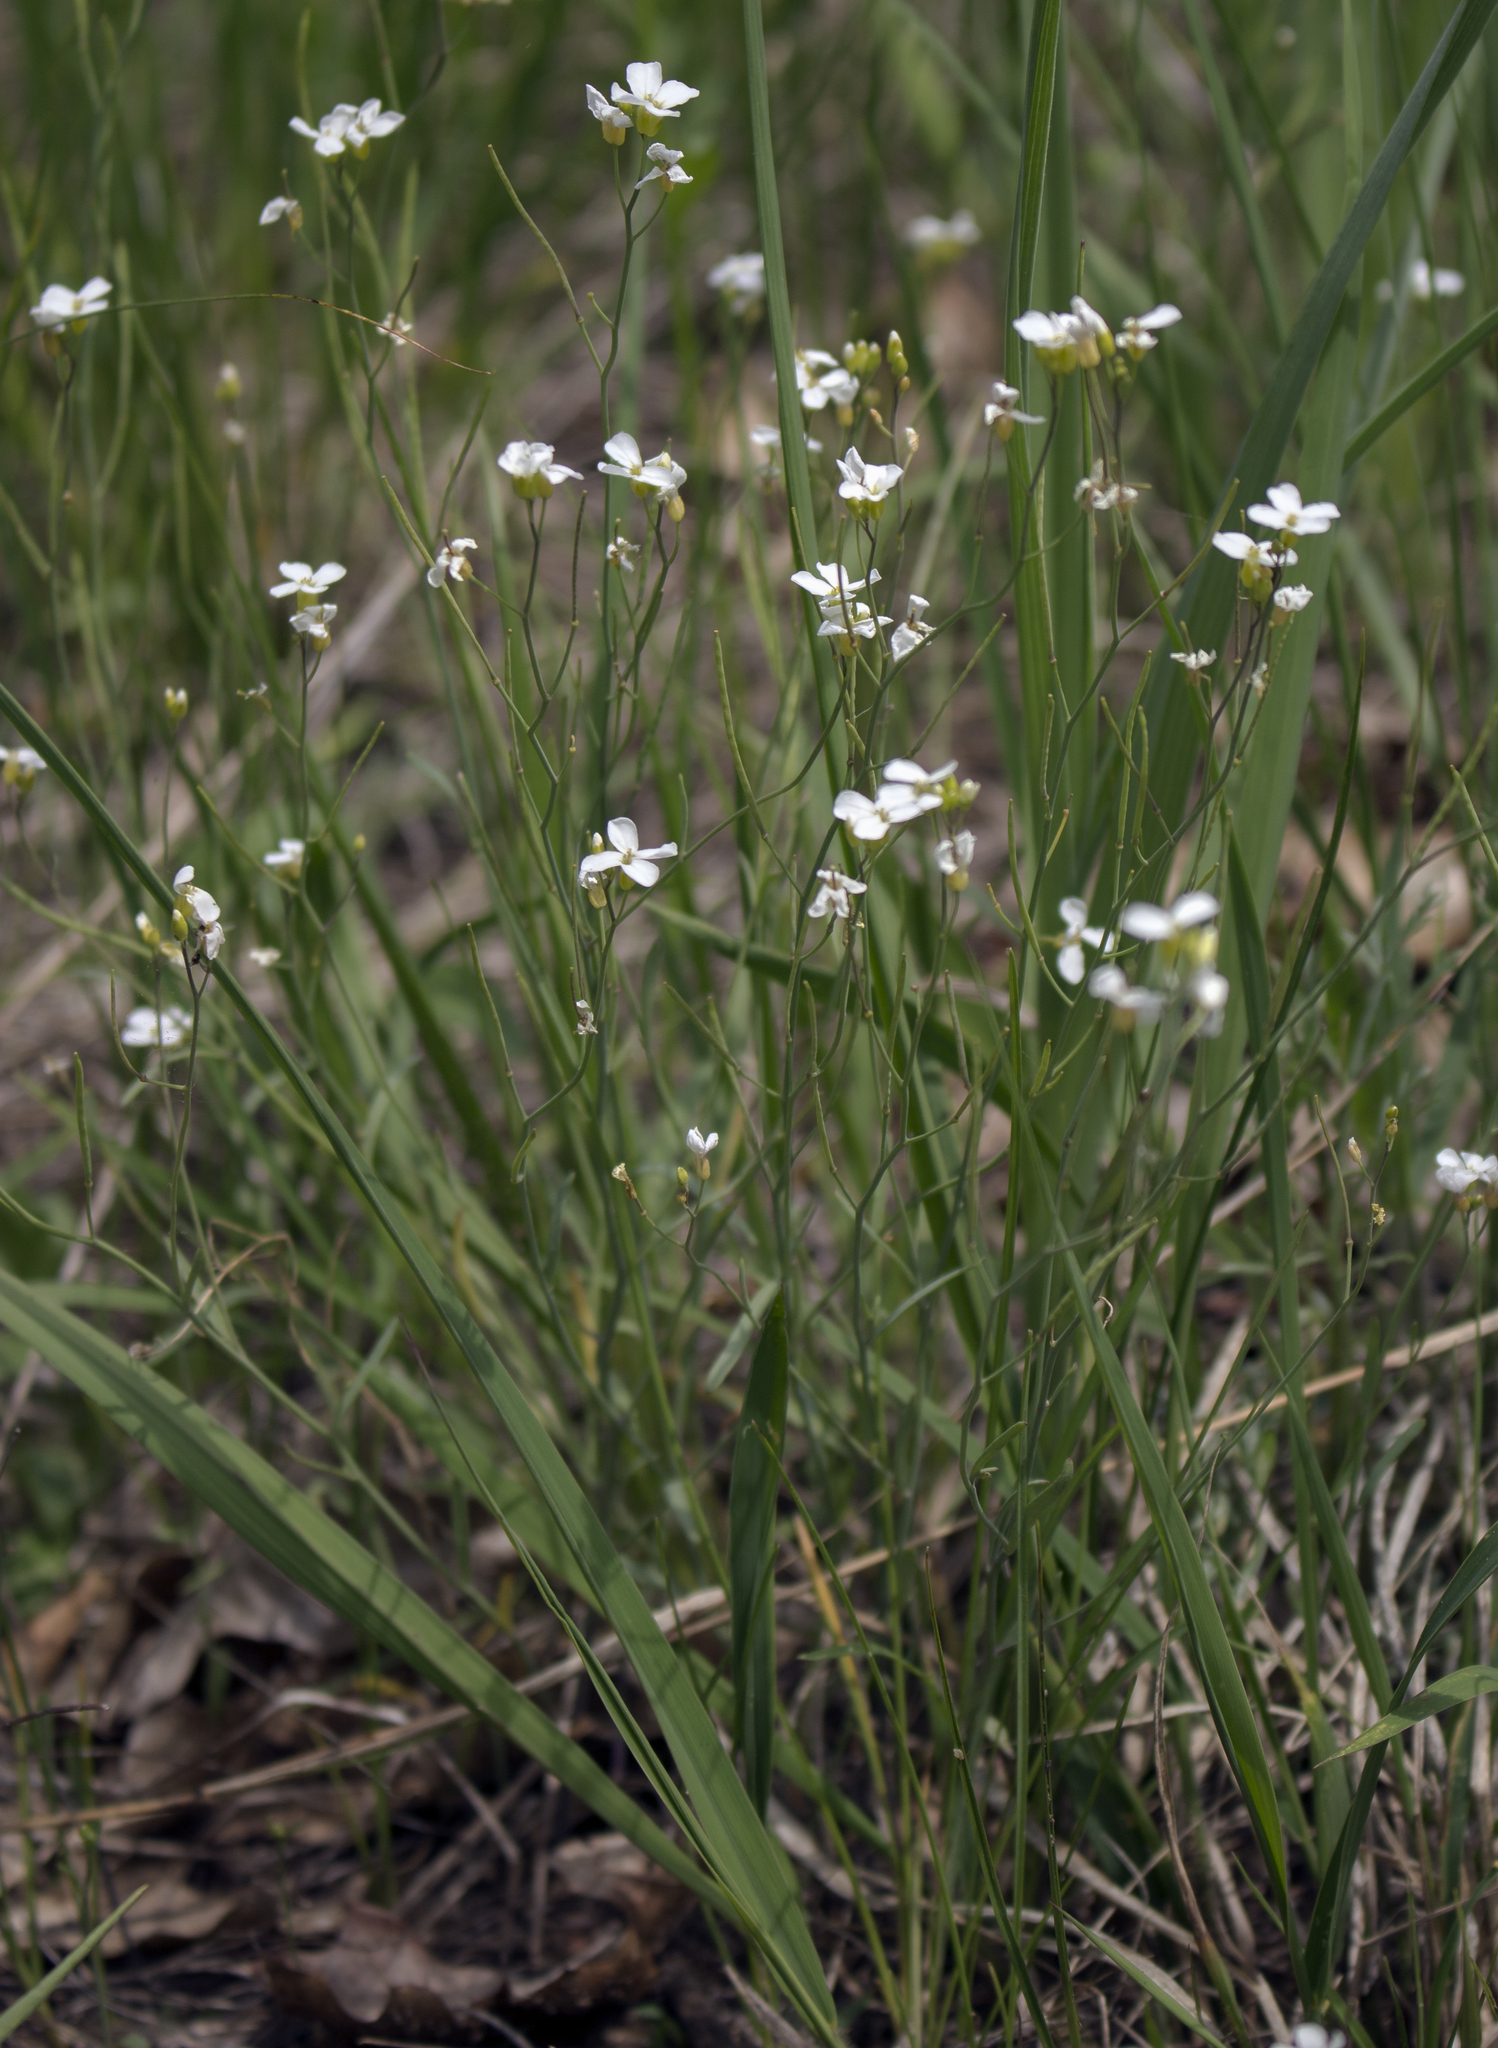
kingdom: Plantae
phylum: Tracheophyta
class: Magnoliopsida
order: Brassicales
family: Brassicaceae
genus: Arabidopsis
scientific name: Arabidopsis lyrata
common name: Lyrate rockcress
